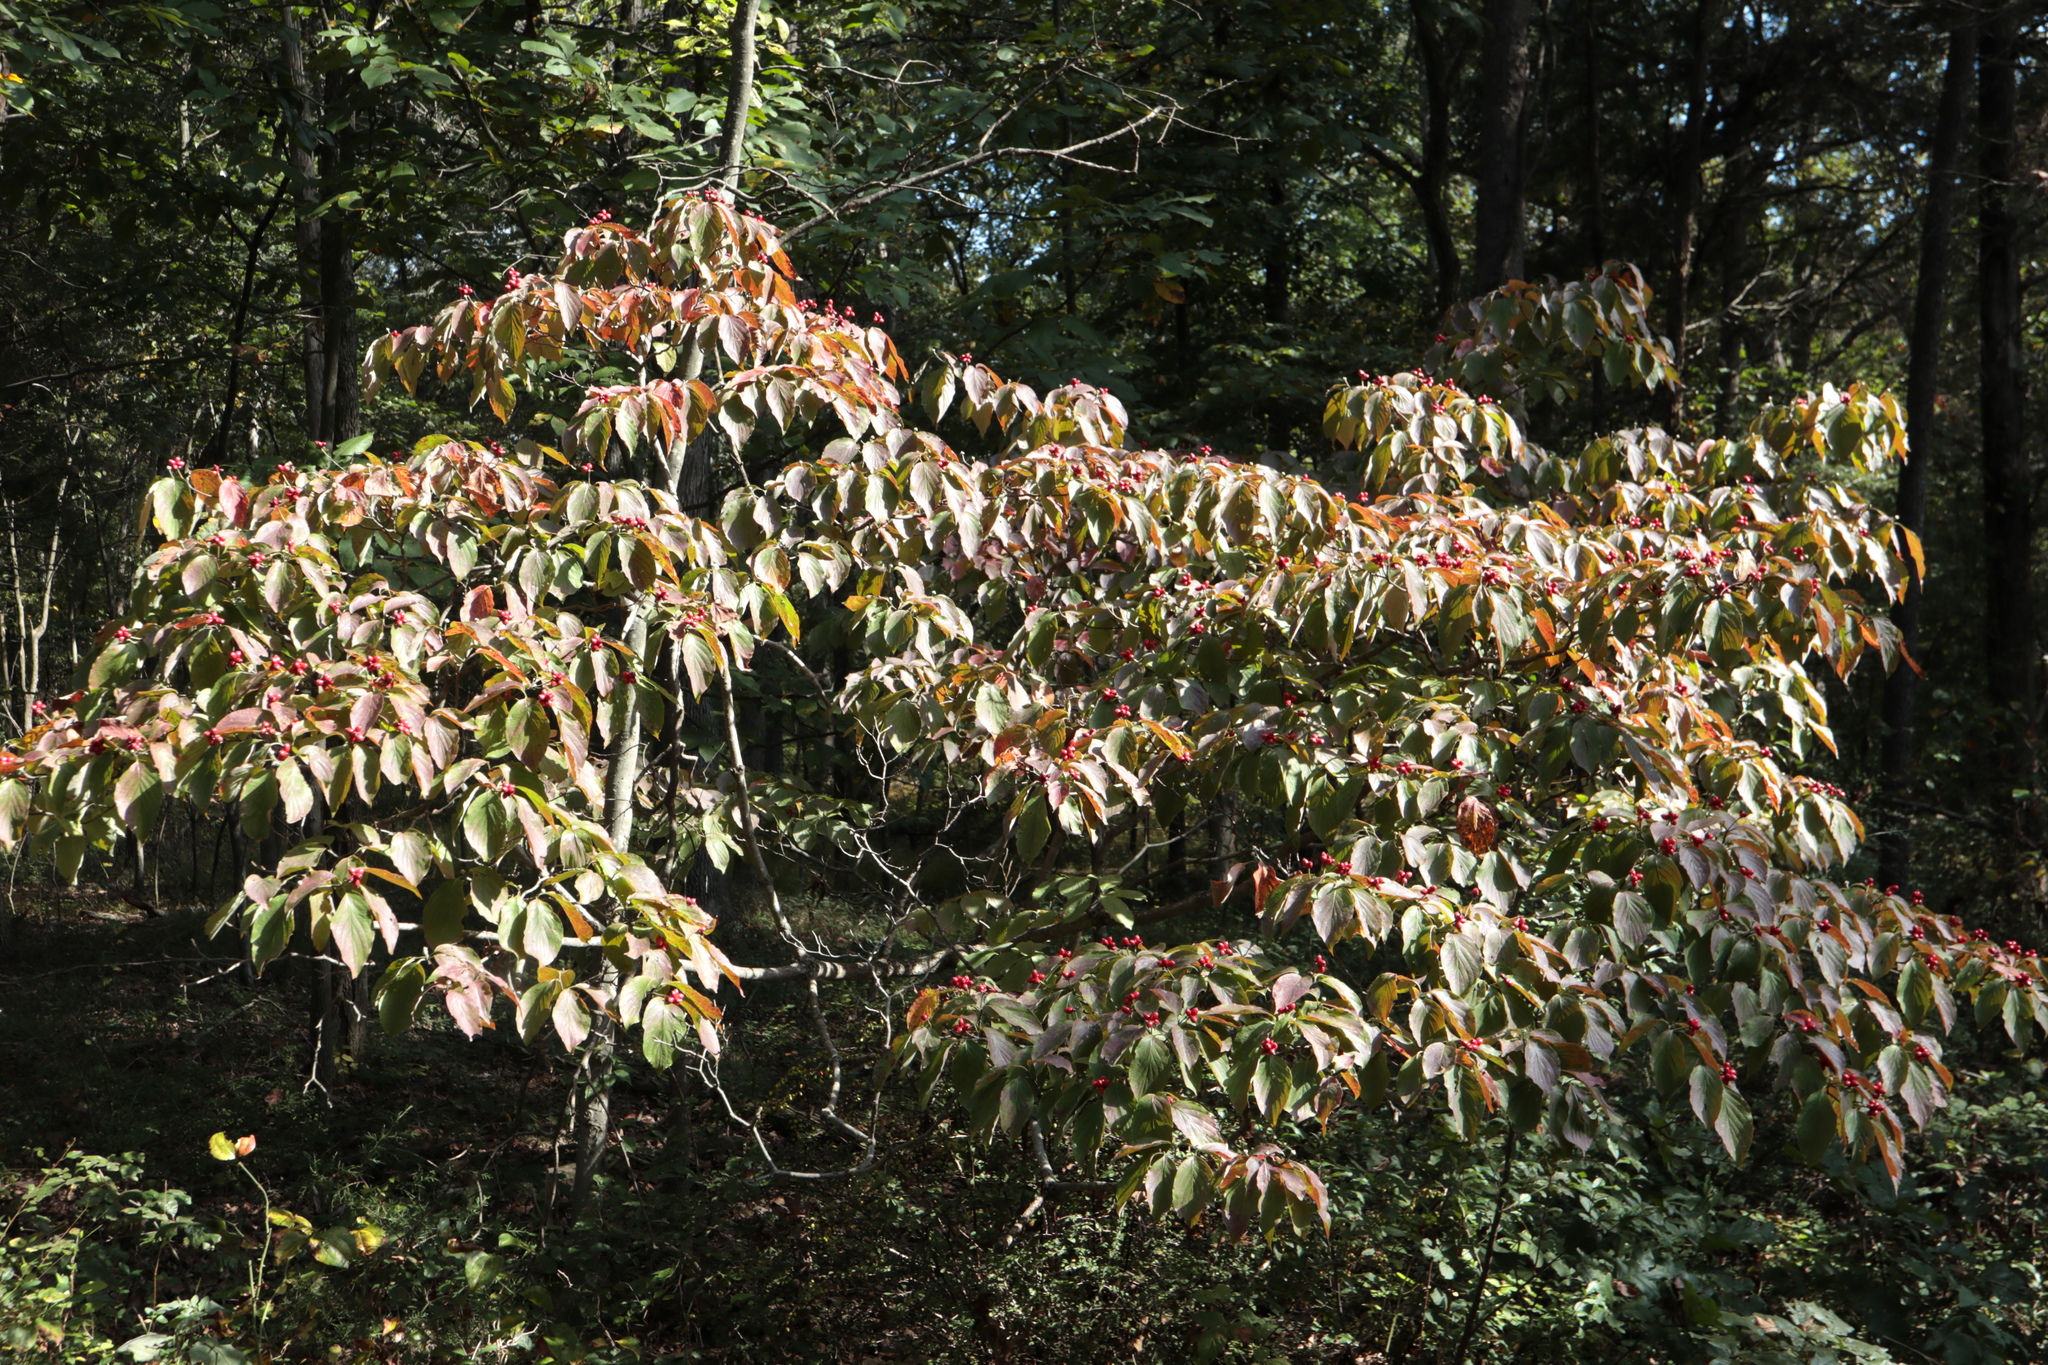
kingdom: Plantae
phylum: Tracheophyta
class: Magnoliopsida
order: Cornales
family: Cornaceae
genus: Cornus
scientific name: Cornus florida
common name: Flowering dogwood
